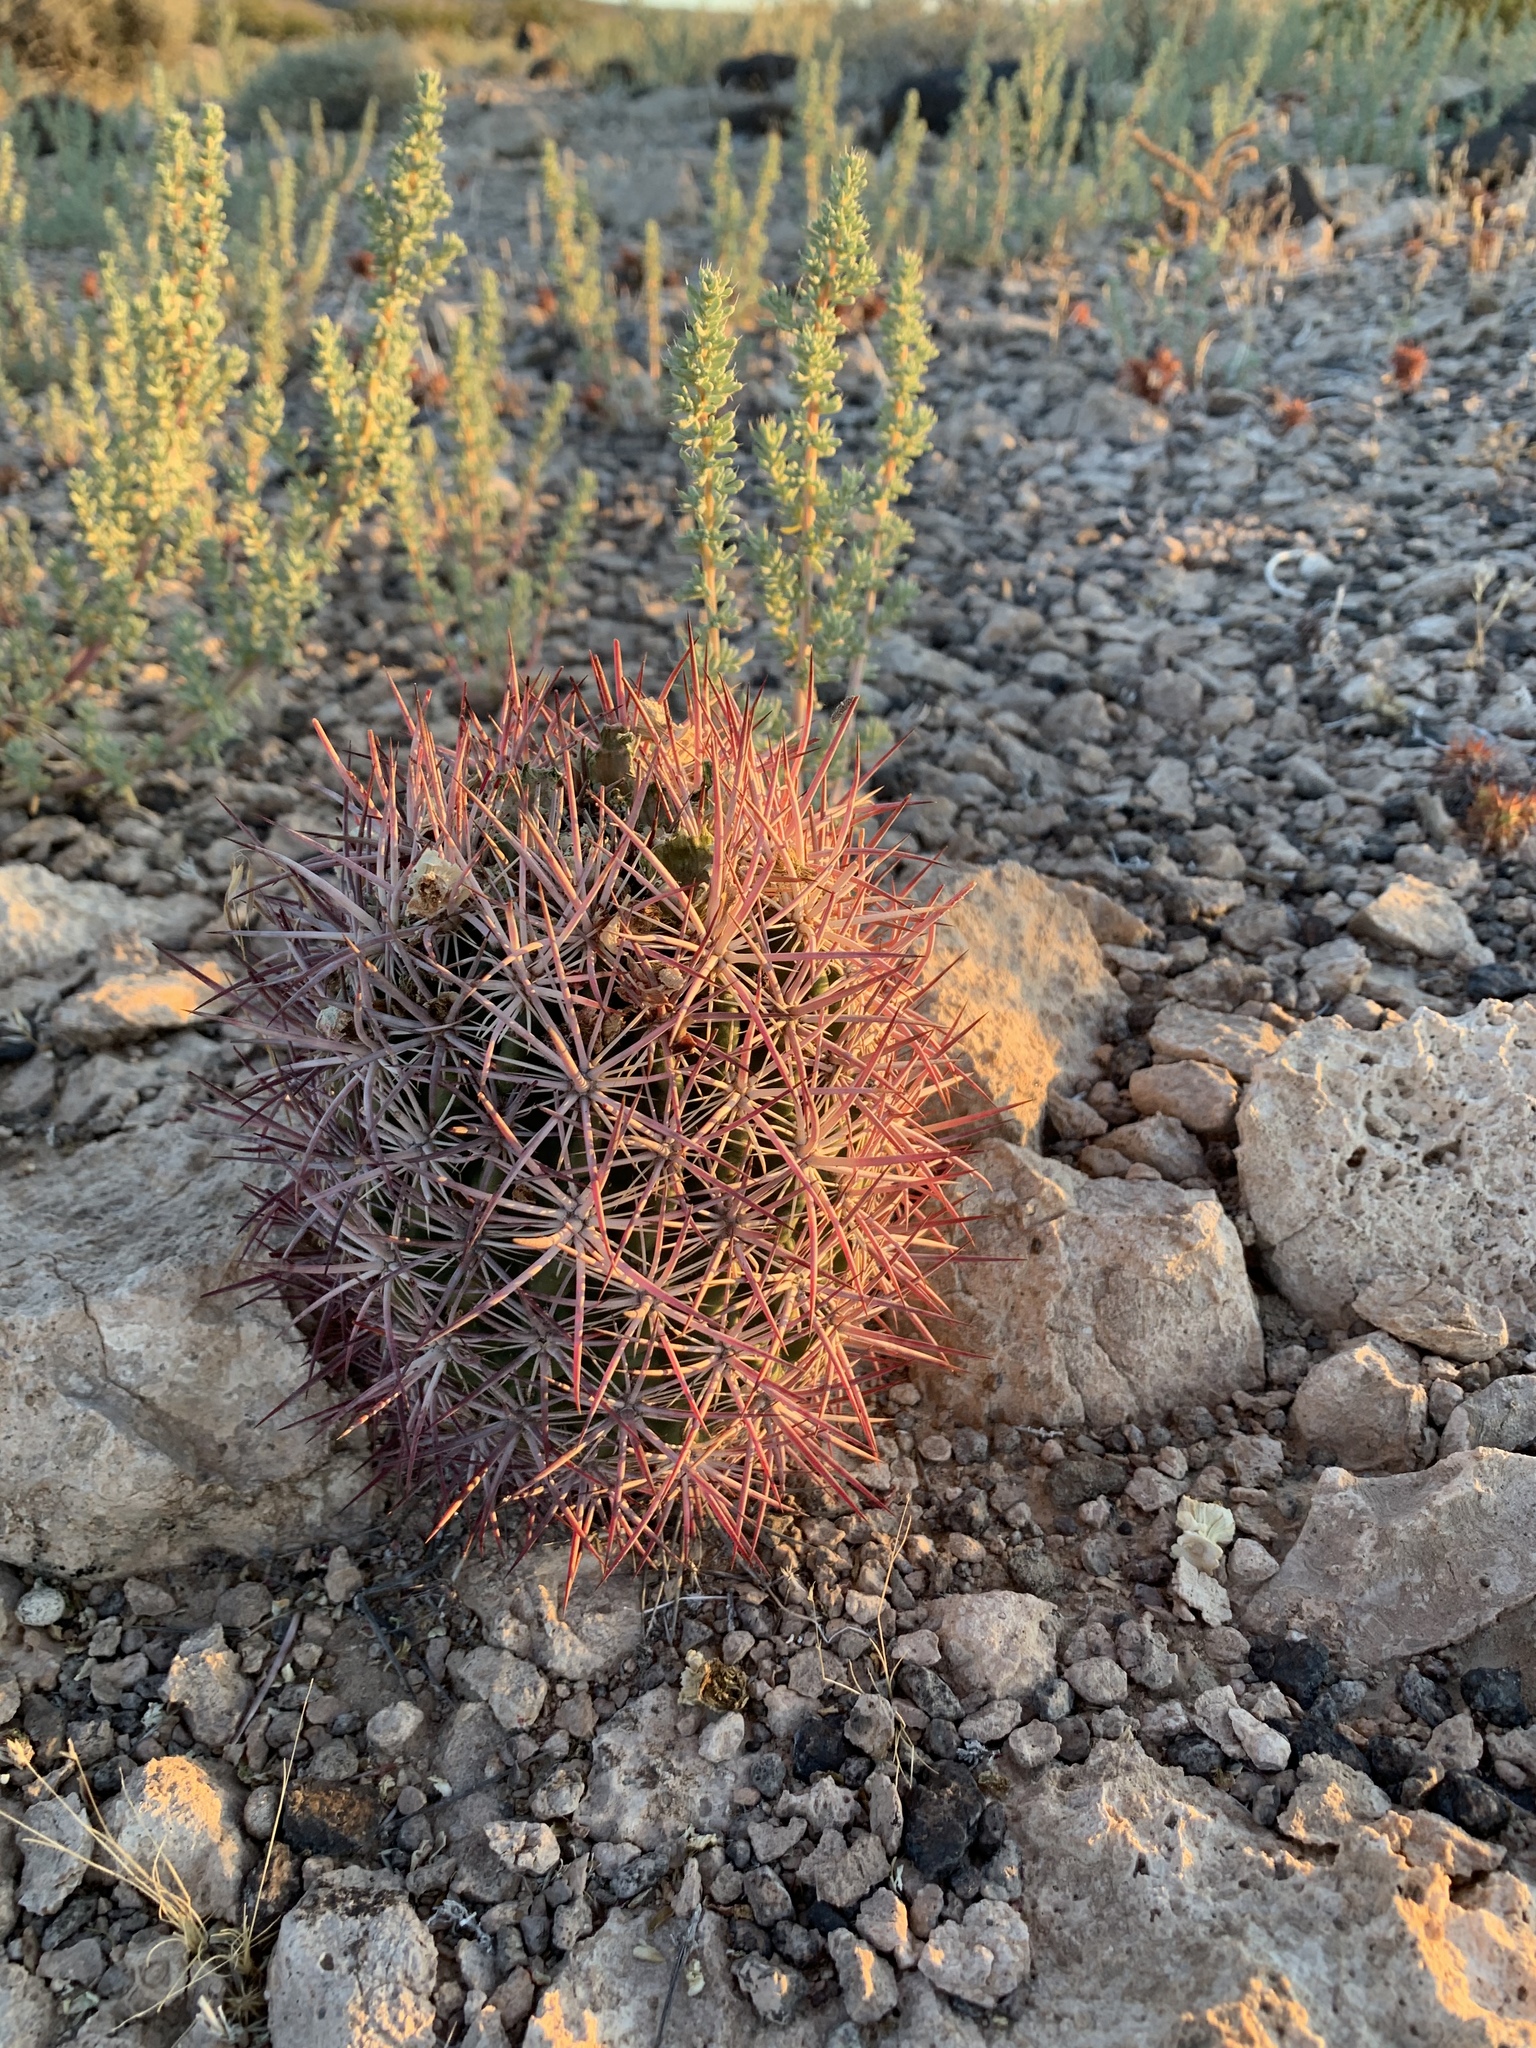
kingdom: Plantae
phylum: Tracheophyta
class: Magnoliopsida
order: Caryophyllales
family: Cactaceae
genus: Sclerocactus
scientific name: Sclerocactus johnsonii
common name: Eight-spine fishhook cactus
